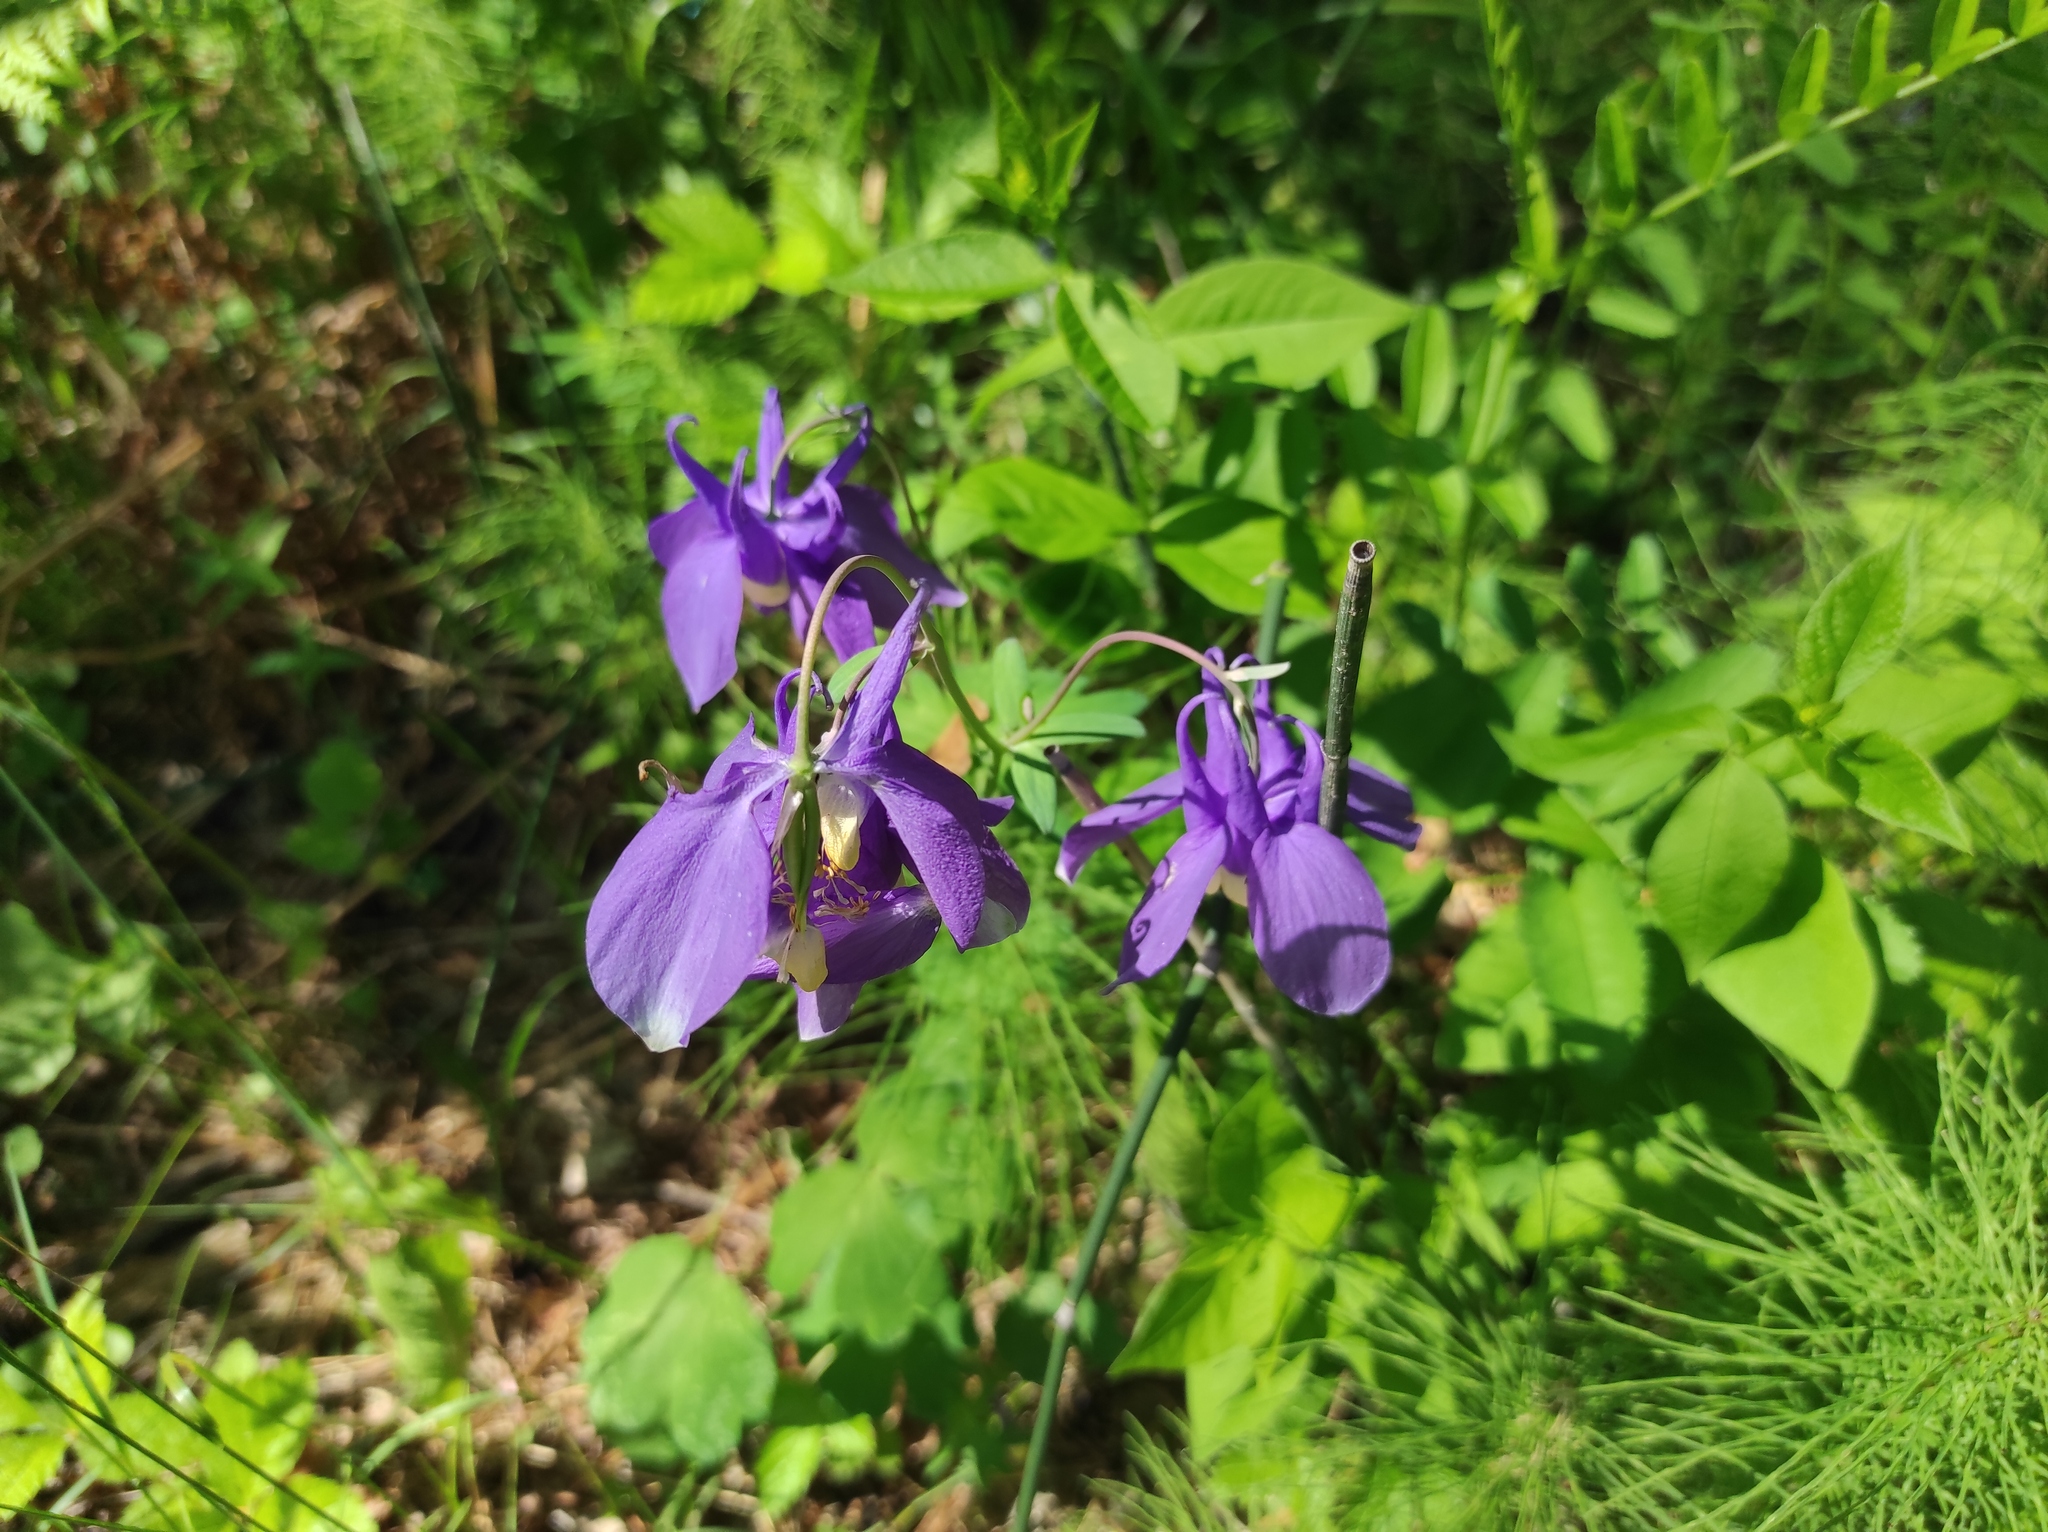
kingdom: Plantae
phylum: Tracheophyta
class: Magnoliopsida
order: Ranunculales
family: Ranunculaceae
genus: Aquilegia
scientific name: Aquilegia sibirica
